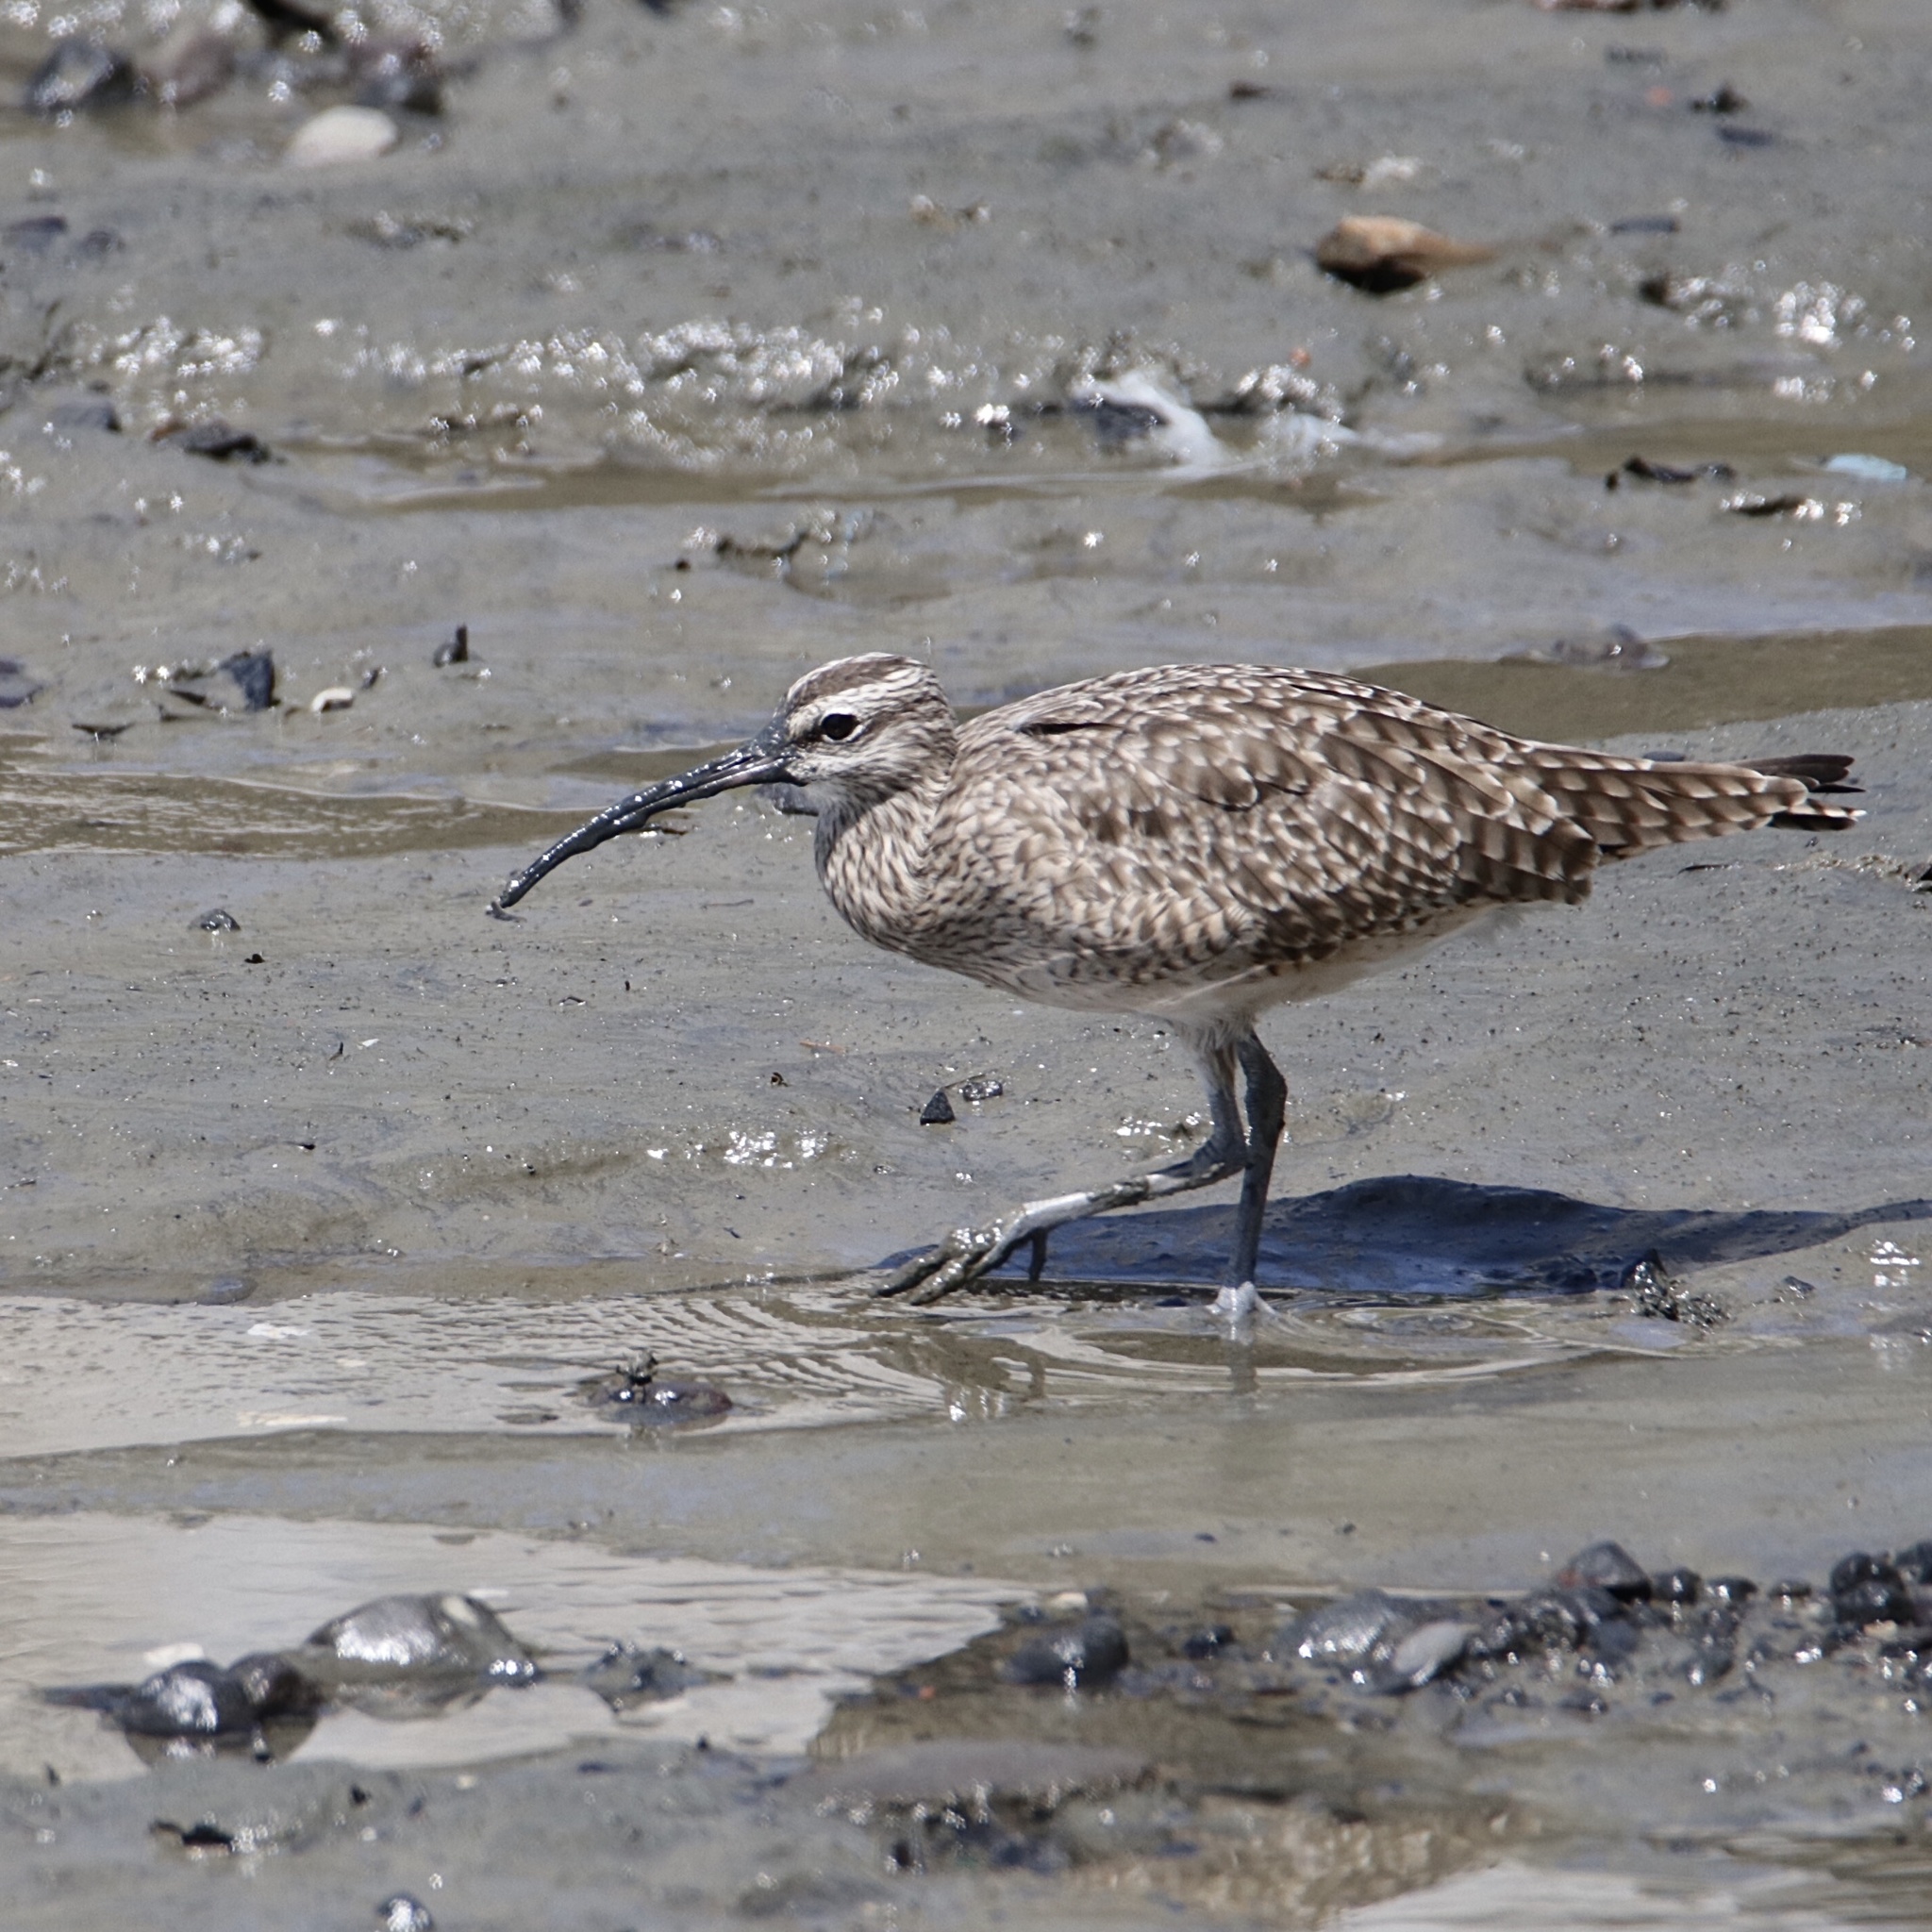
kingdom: Animalia
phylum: Chordata
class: Aves
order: Charadriiformes
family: Scolopacidae
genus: Numenius
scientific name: Numenius phaeopus
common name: Whimbrel
